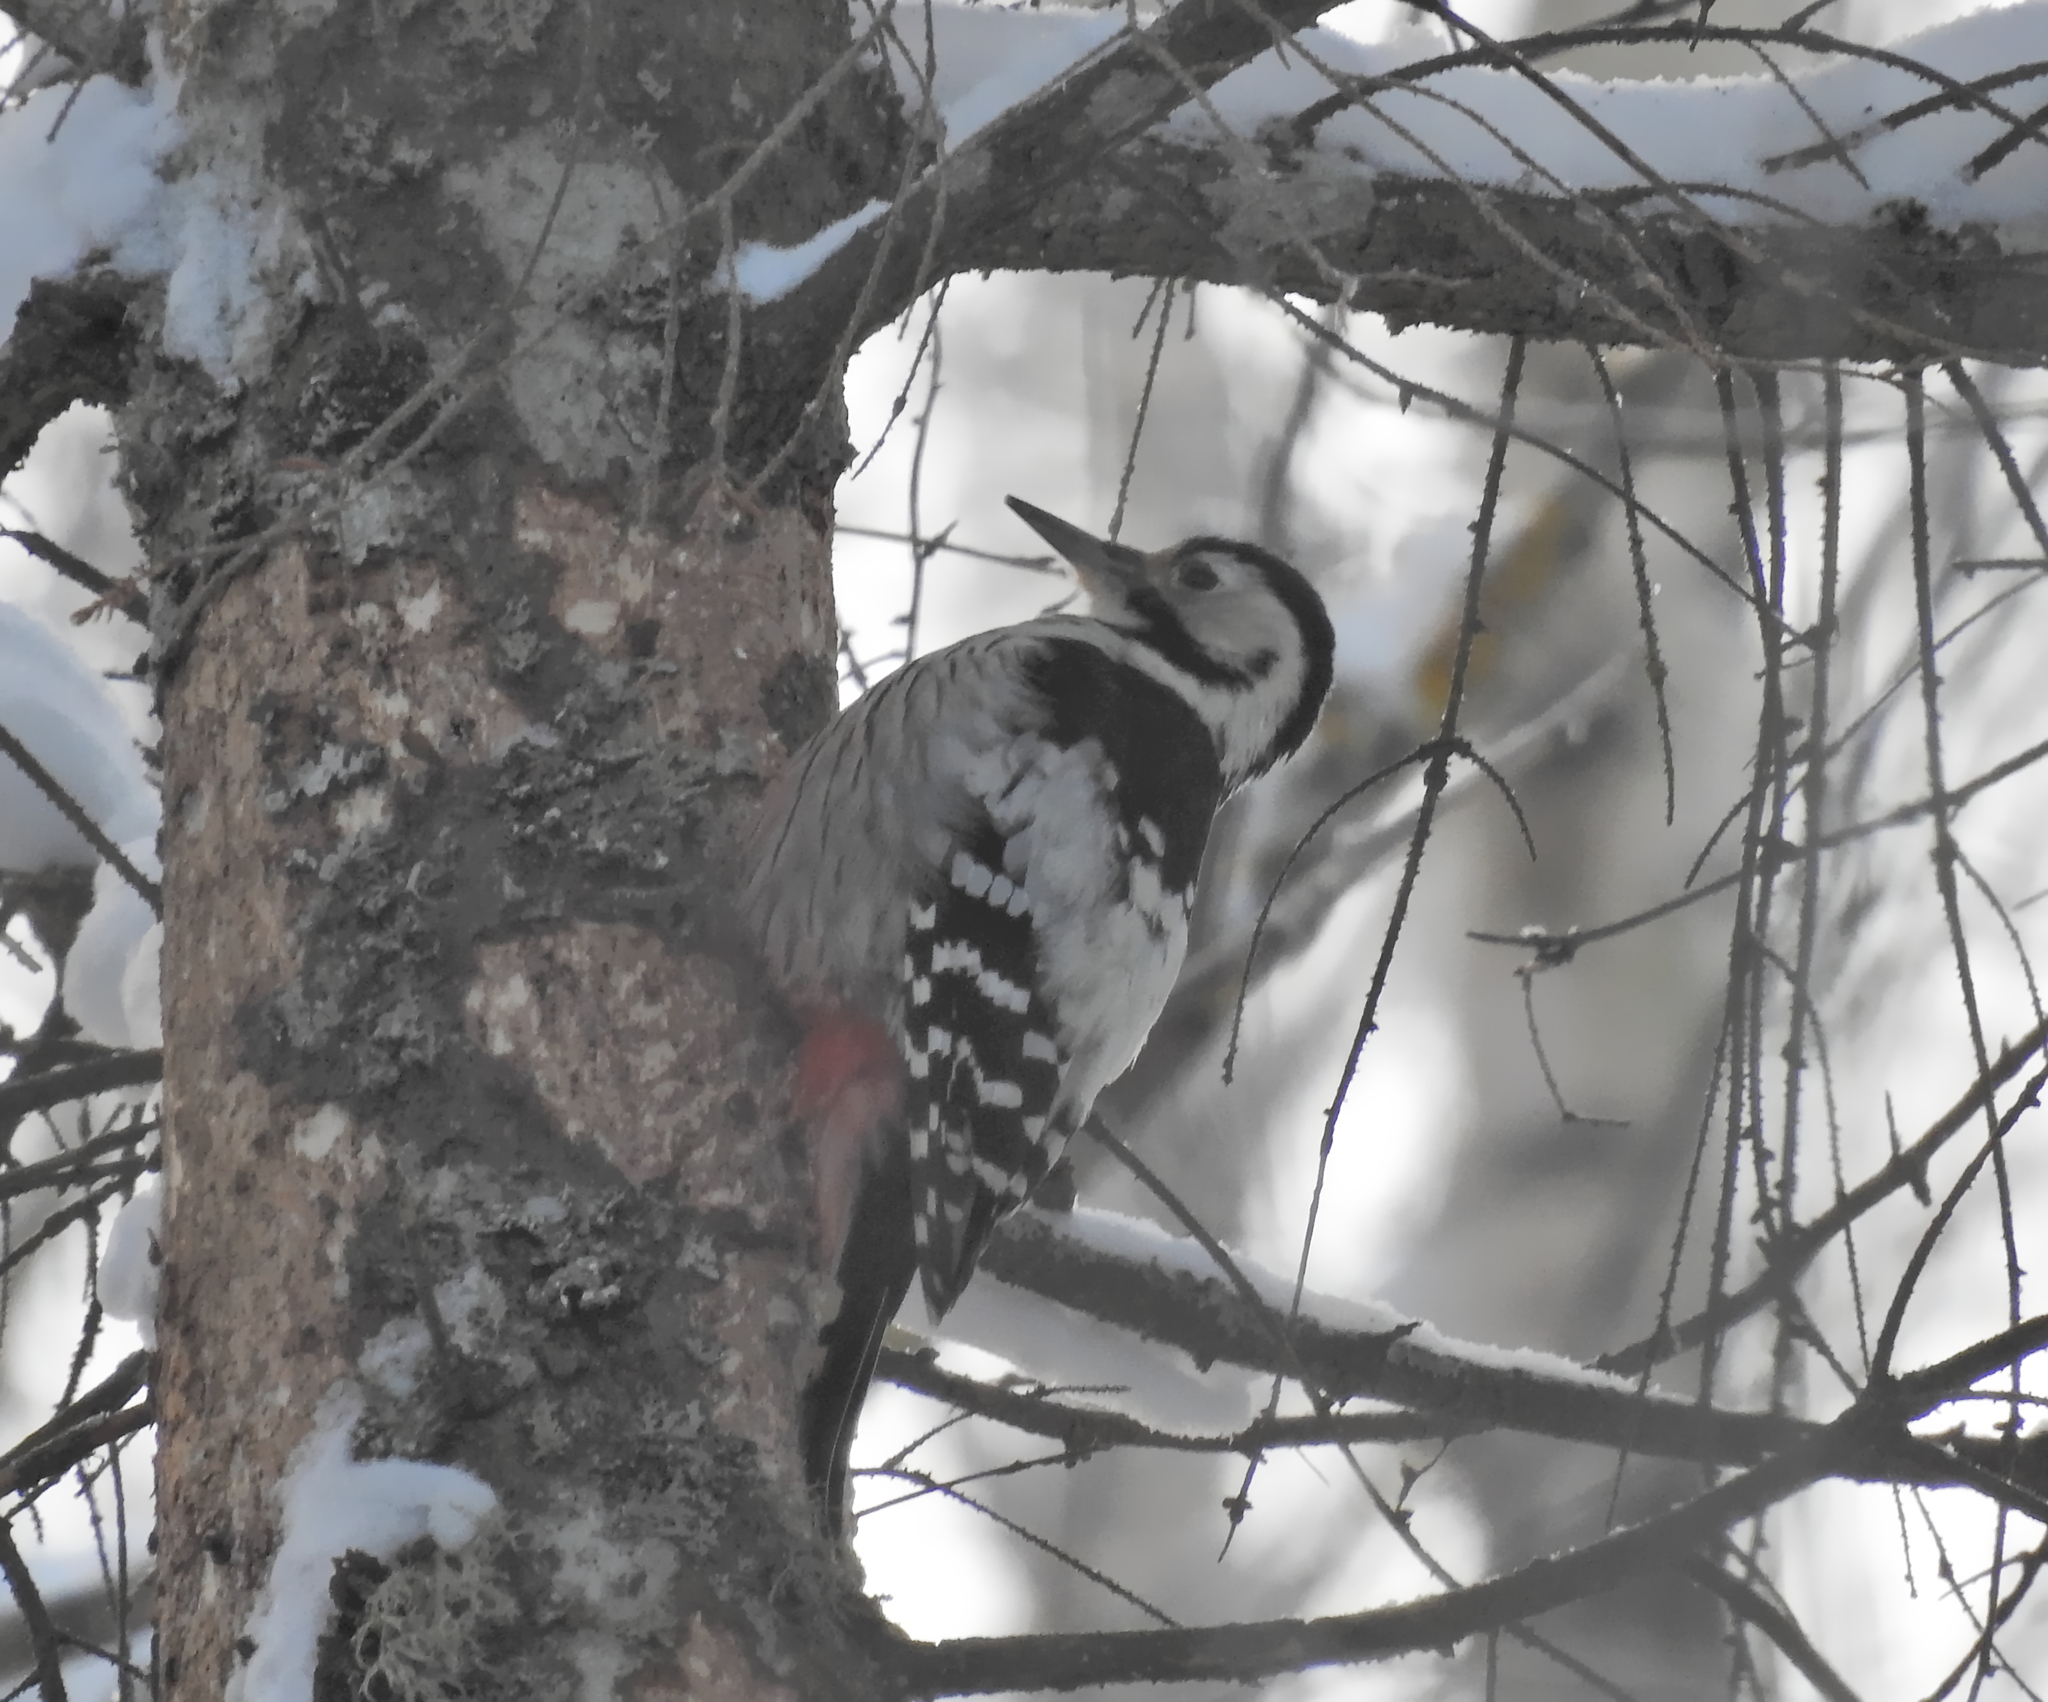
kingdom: Animalia
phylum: Chordata
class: Aves
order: Piciformes
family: Picidae
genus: Dendrocopos
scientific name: Dendrocopos leucotos
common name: White-backed woodpecker
